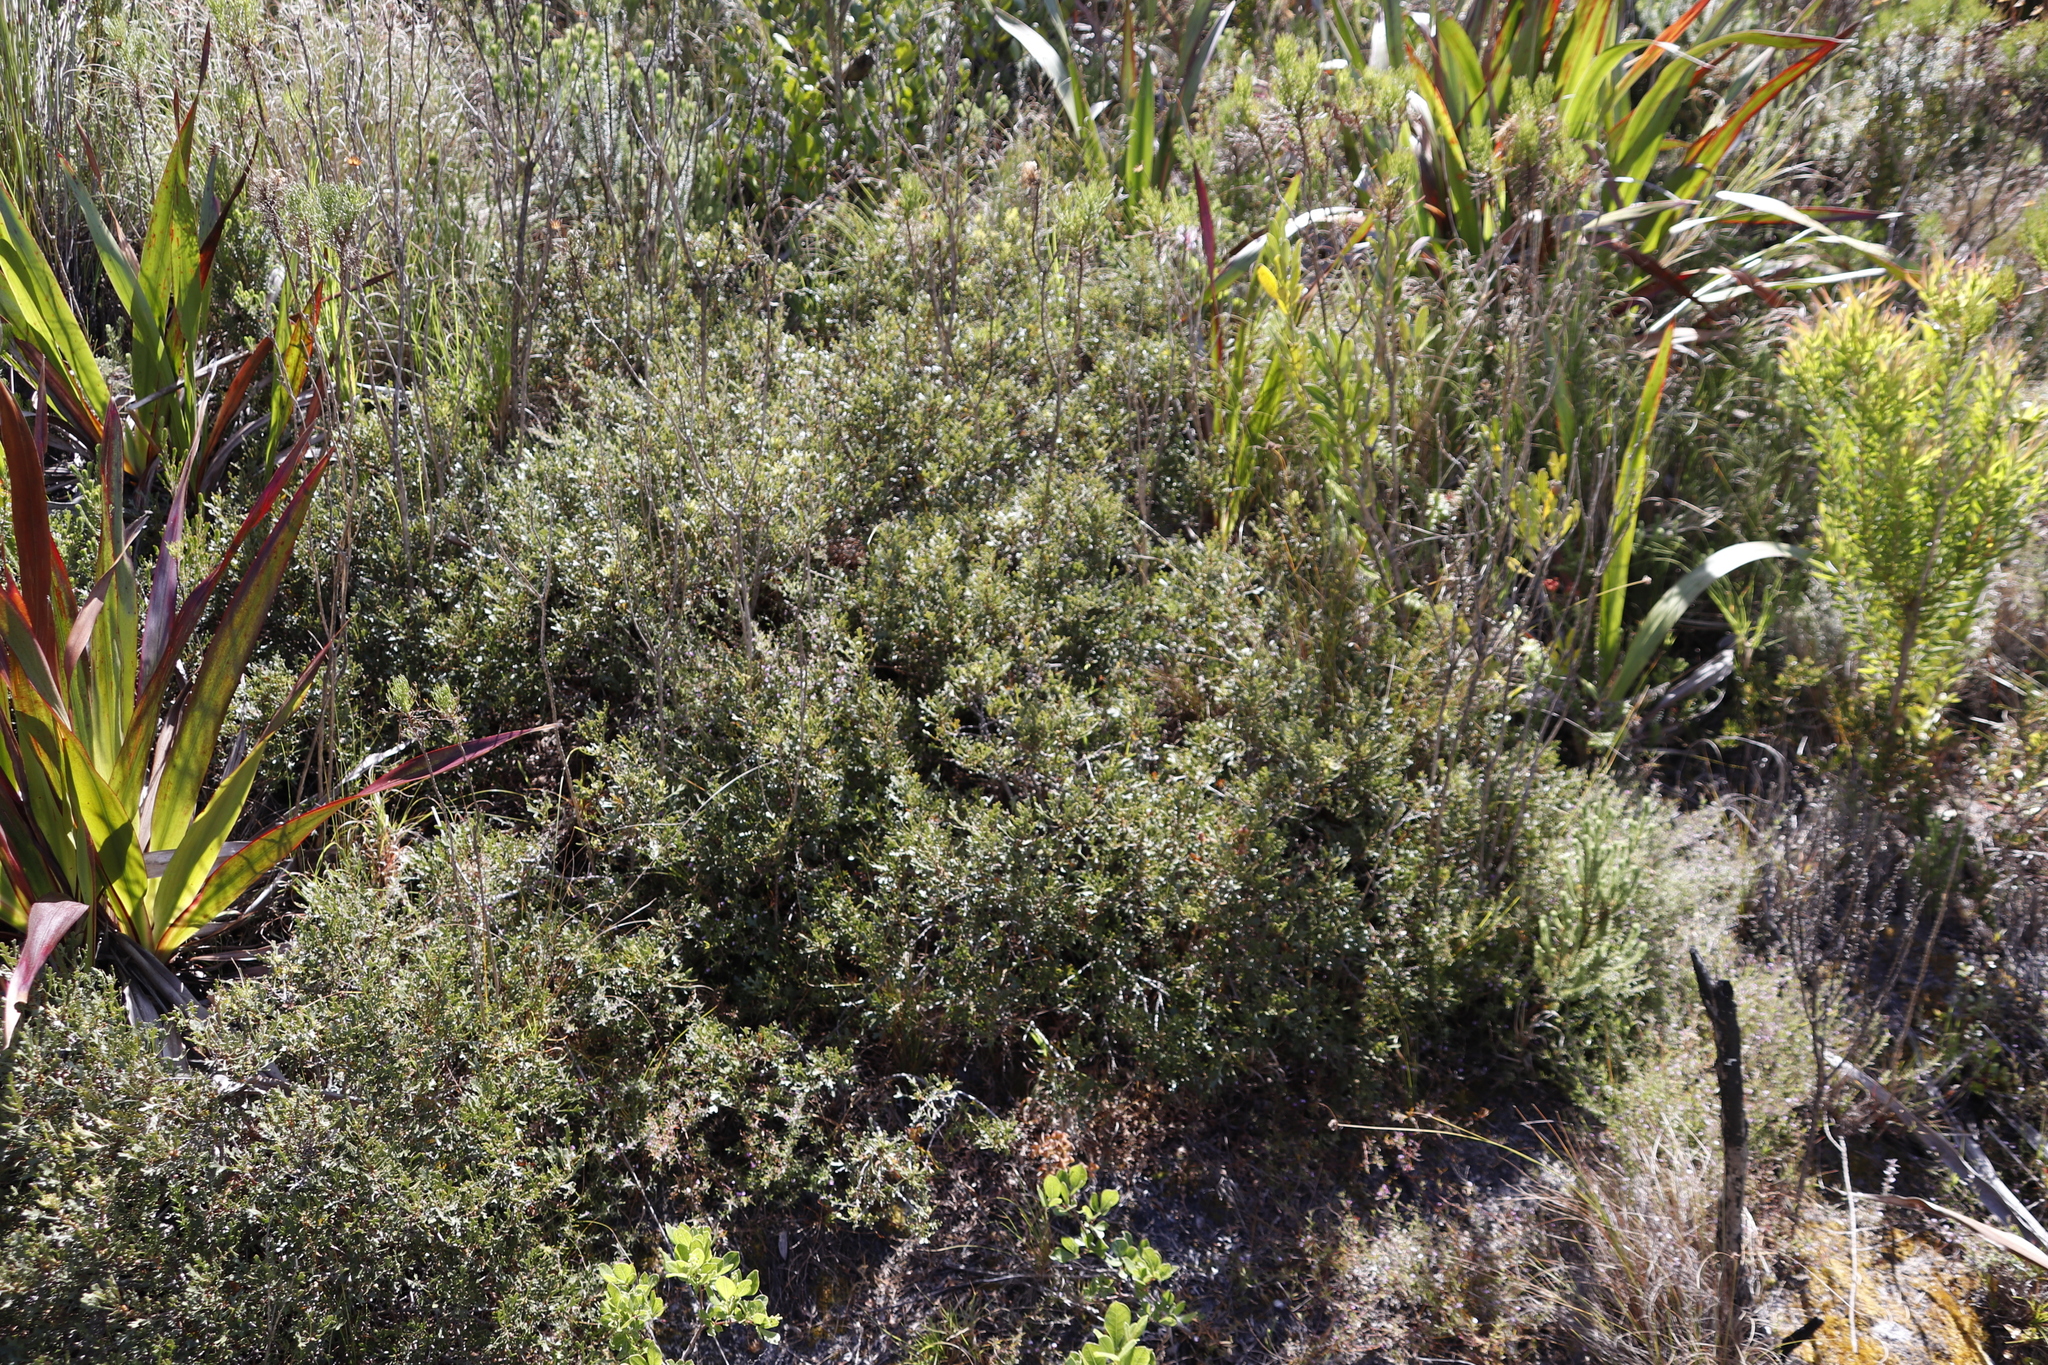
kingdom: Plantae
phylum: Tracheophyta
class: Magnoliopsida
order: Fagales
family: Myricaceae
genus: Morella
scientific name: Morella quercifolia
